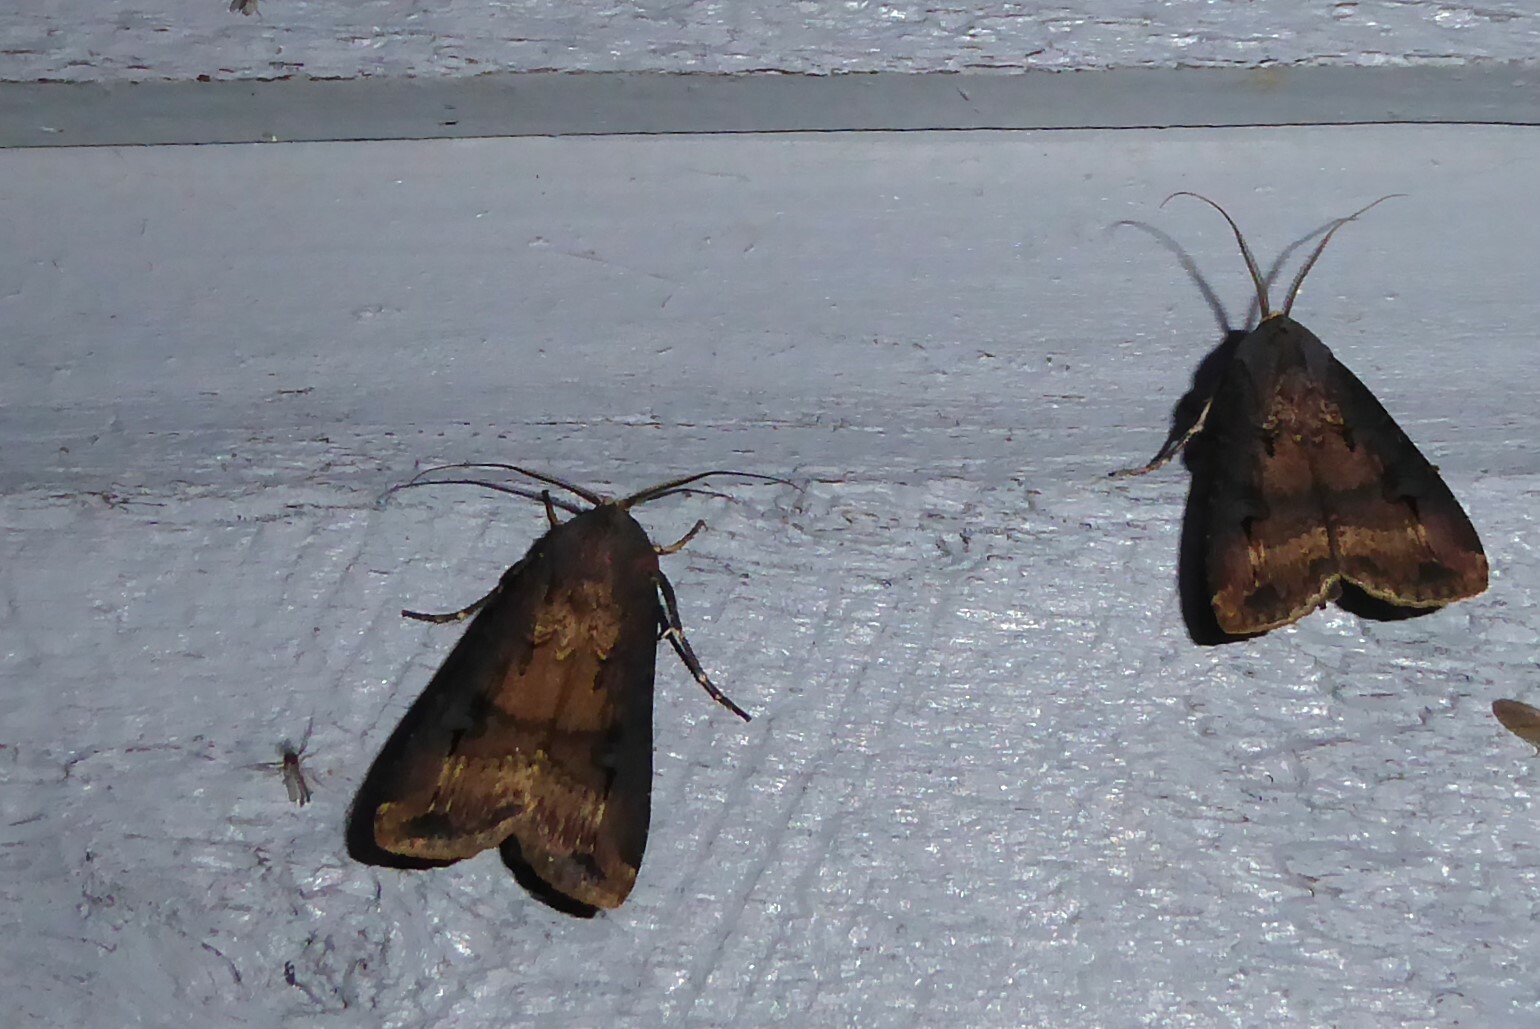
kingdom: Animalia
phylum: Arthropoda
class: Insecta
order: Lepidoptera
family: Noctuidae
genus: Agrotis
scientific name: Agrotis ipsilon
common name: Dark sword-grass
